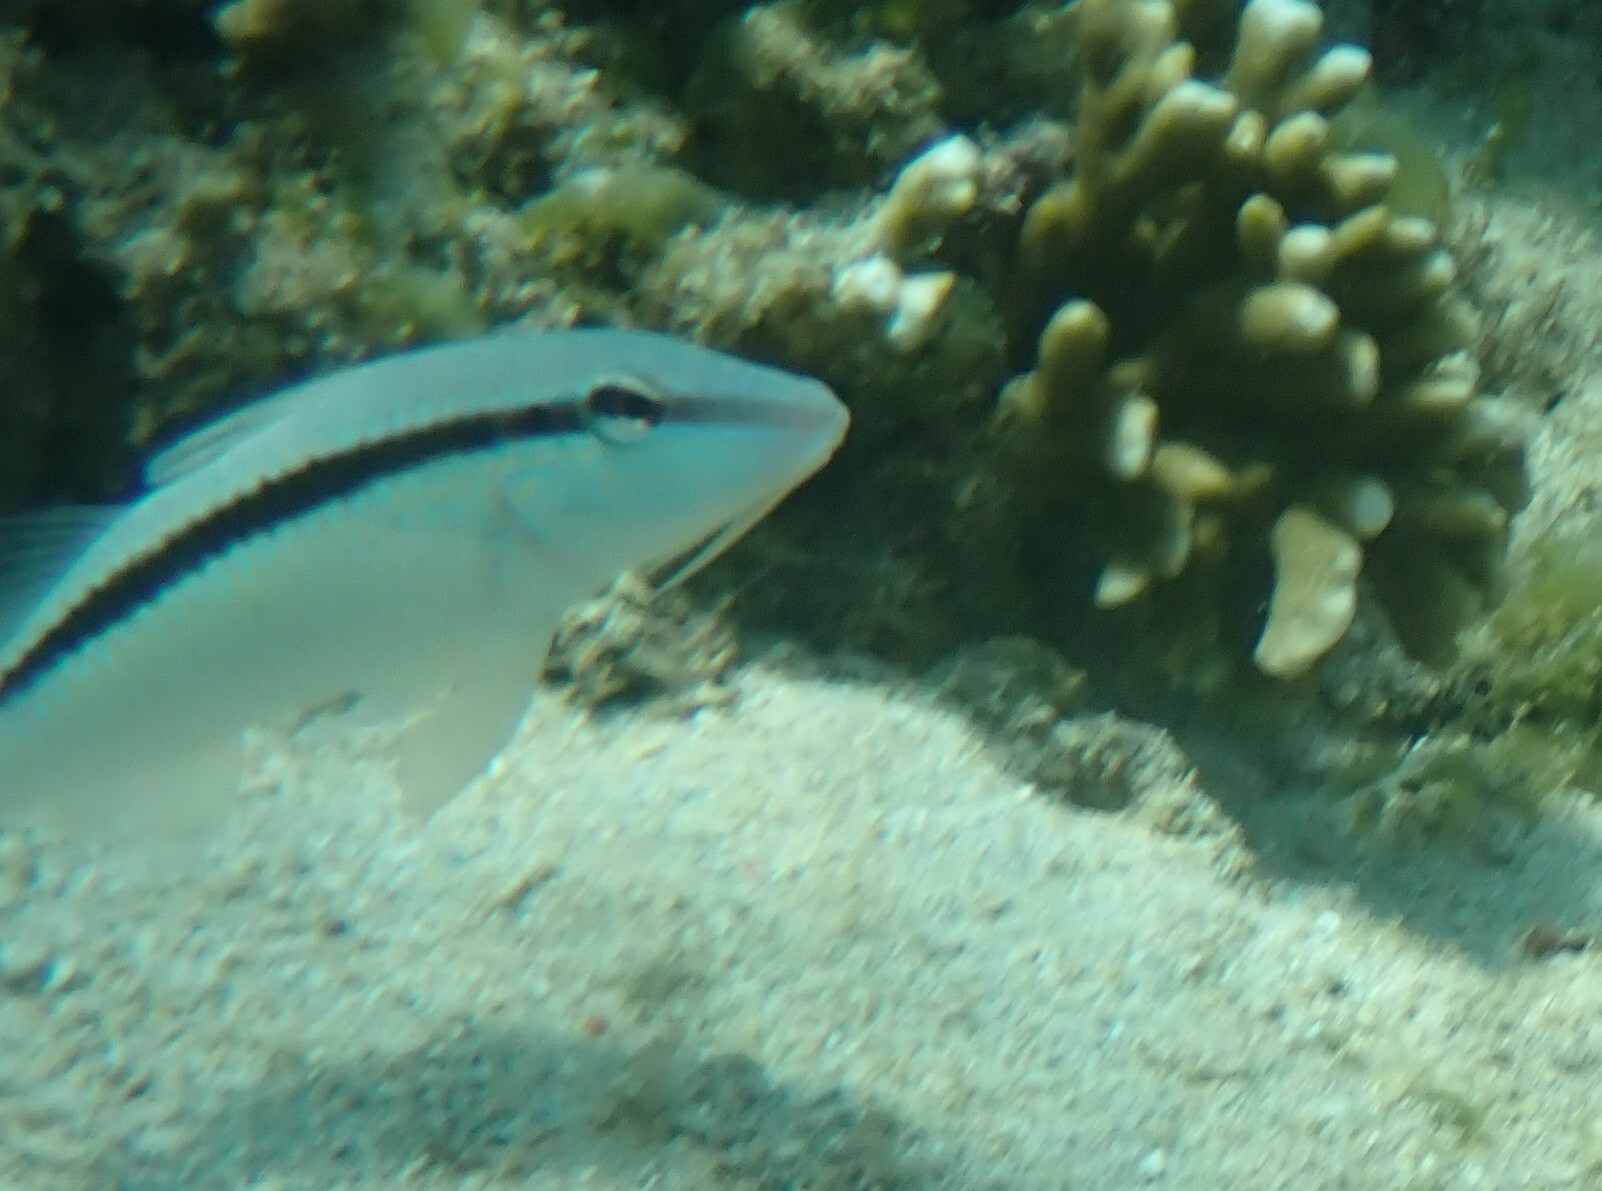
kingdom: Animalia
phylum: Chordata
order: Perciformes
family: Mullidae
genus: Parupeneus
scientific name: Parupeneus barberinus
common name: Dash-and-dot goatfish
